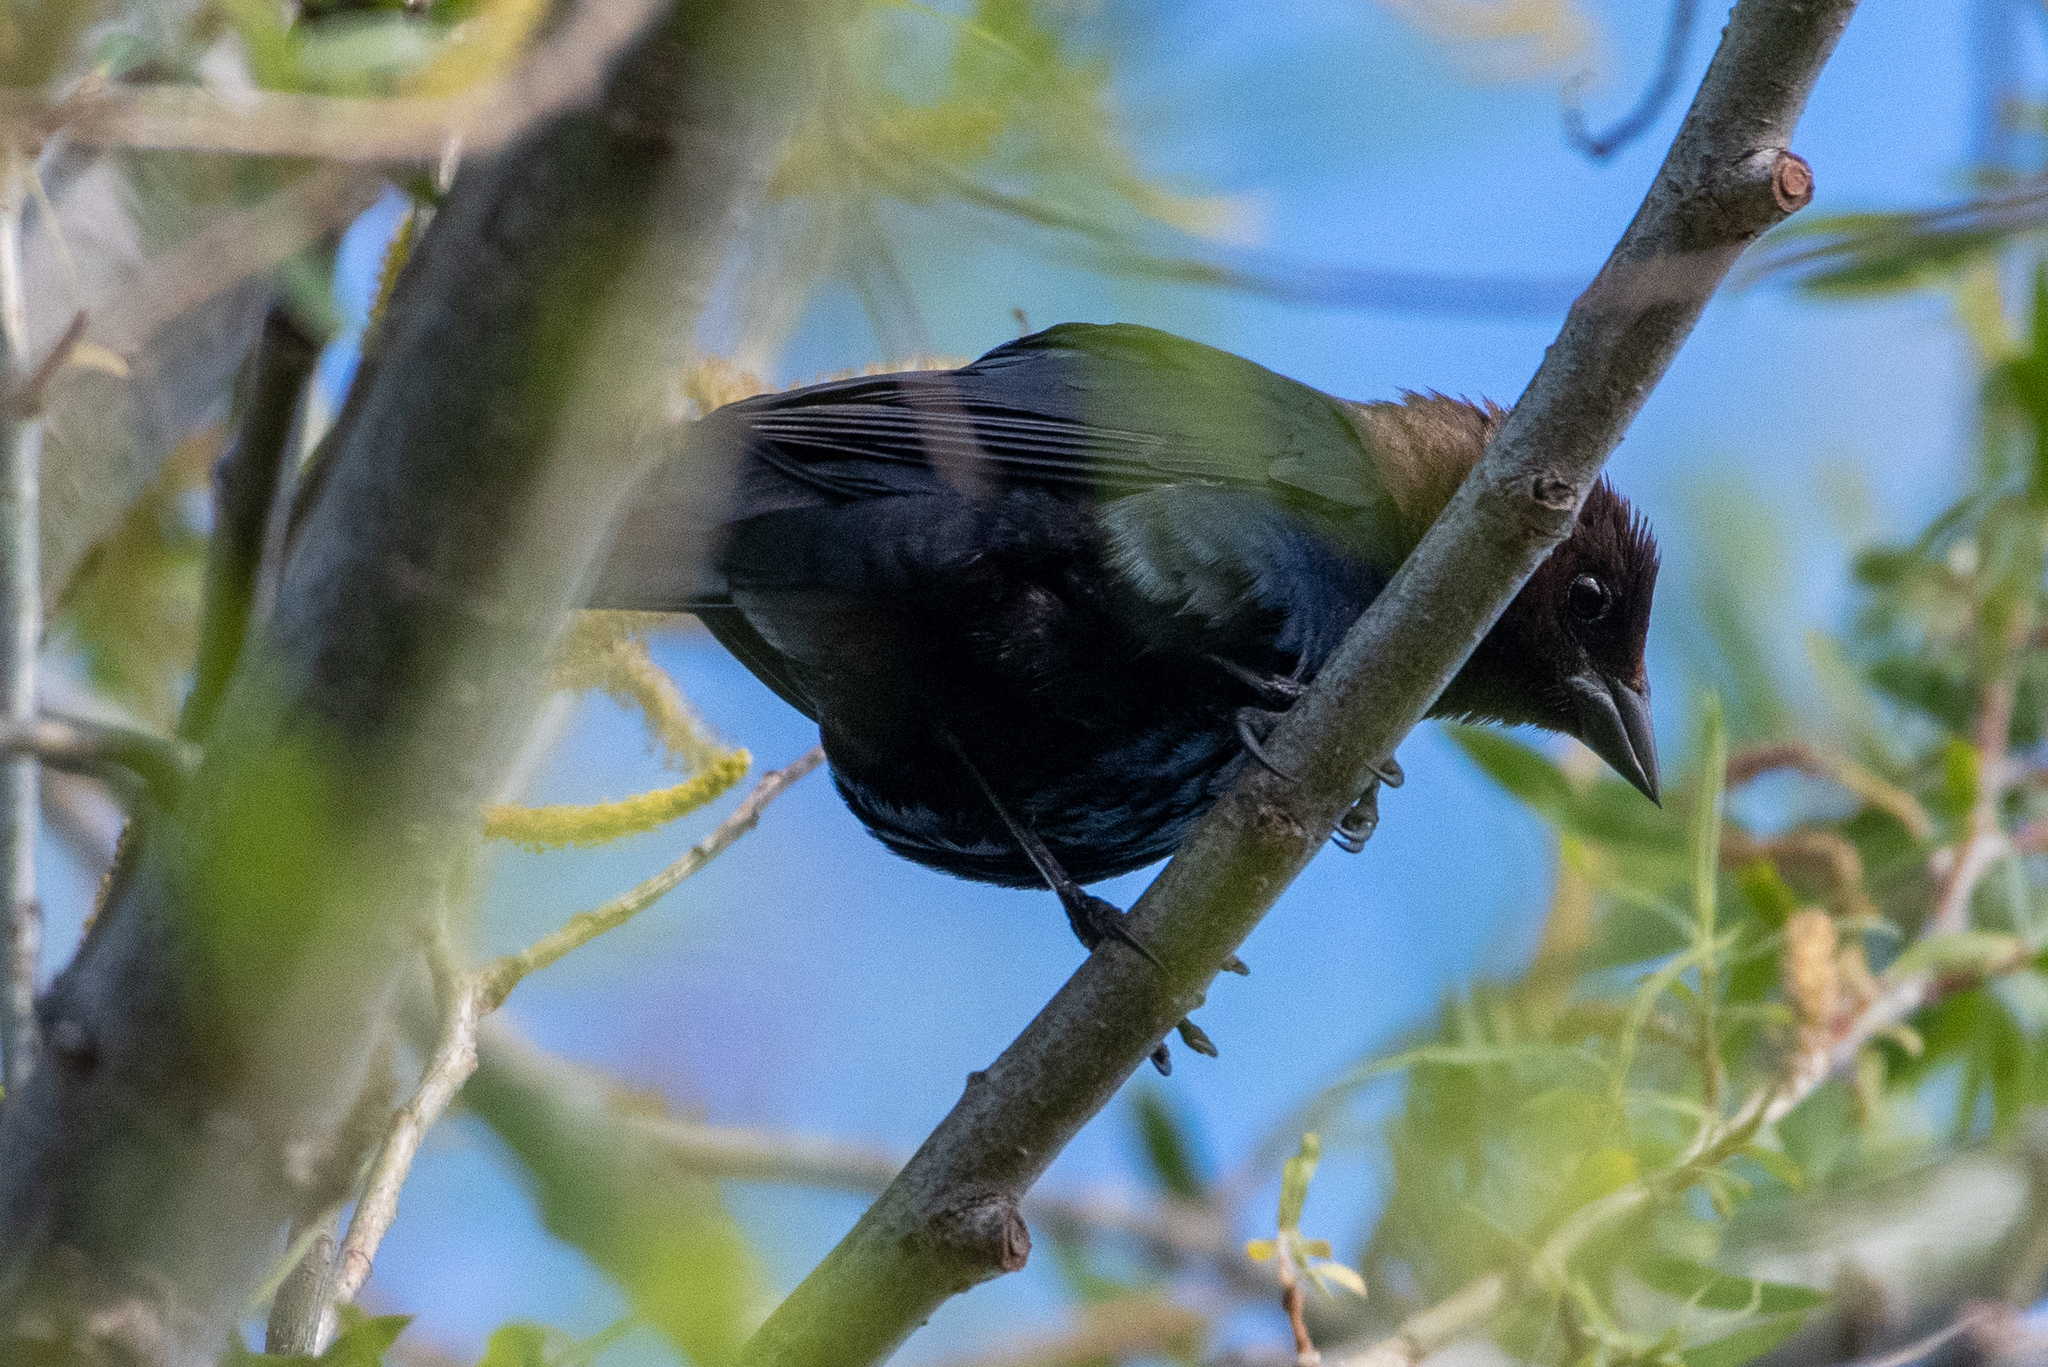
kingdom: Animalia
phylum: Chordata
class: Aves
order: Passeriformes
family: Icteridae
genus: Molothrus
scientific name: Molothrus ater
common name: Brown-headed cowbird
